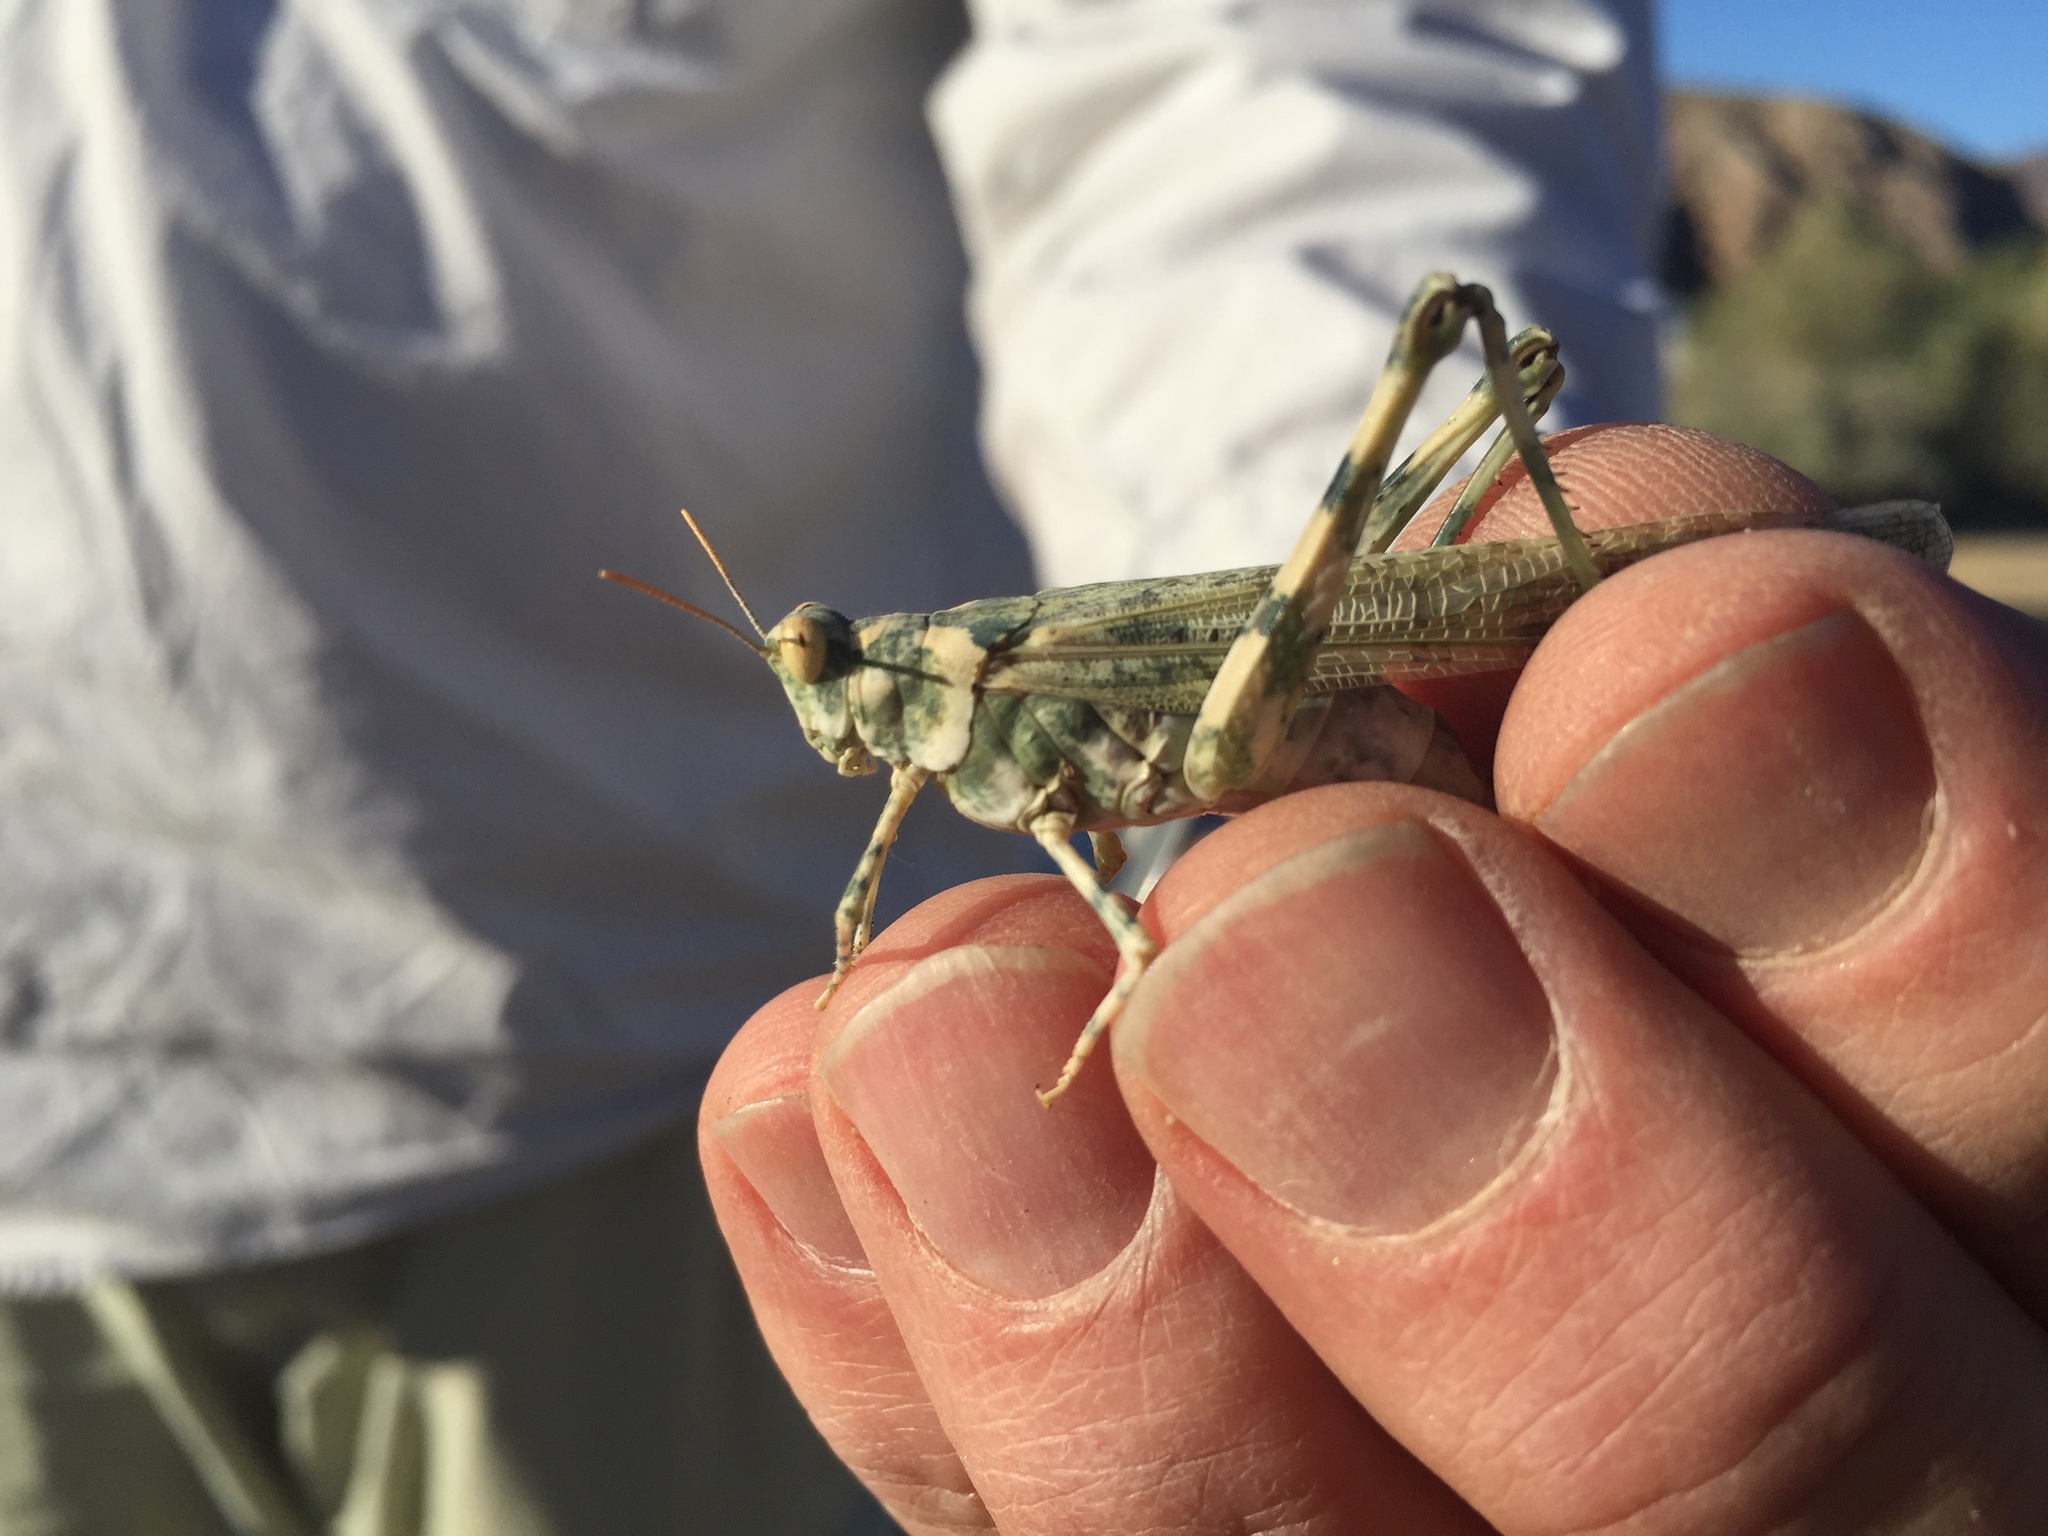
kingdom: Animalia
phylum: Arthropoda
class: Insecta
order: Orthoptera
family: Acrididae
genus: Anconia
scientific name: Anconia integra
